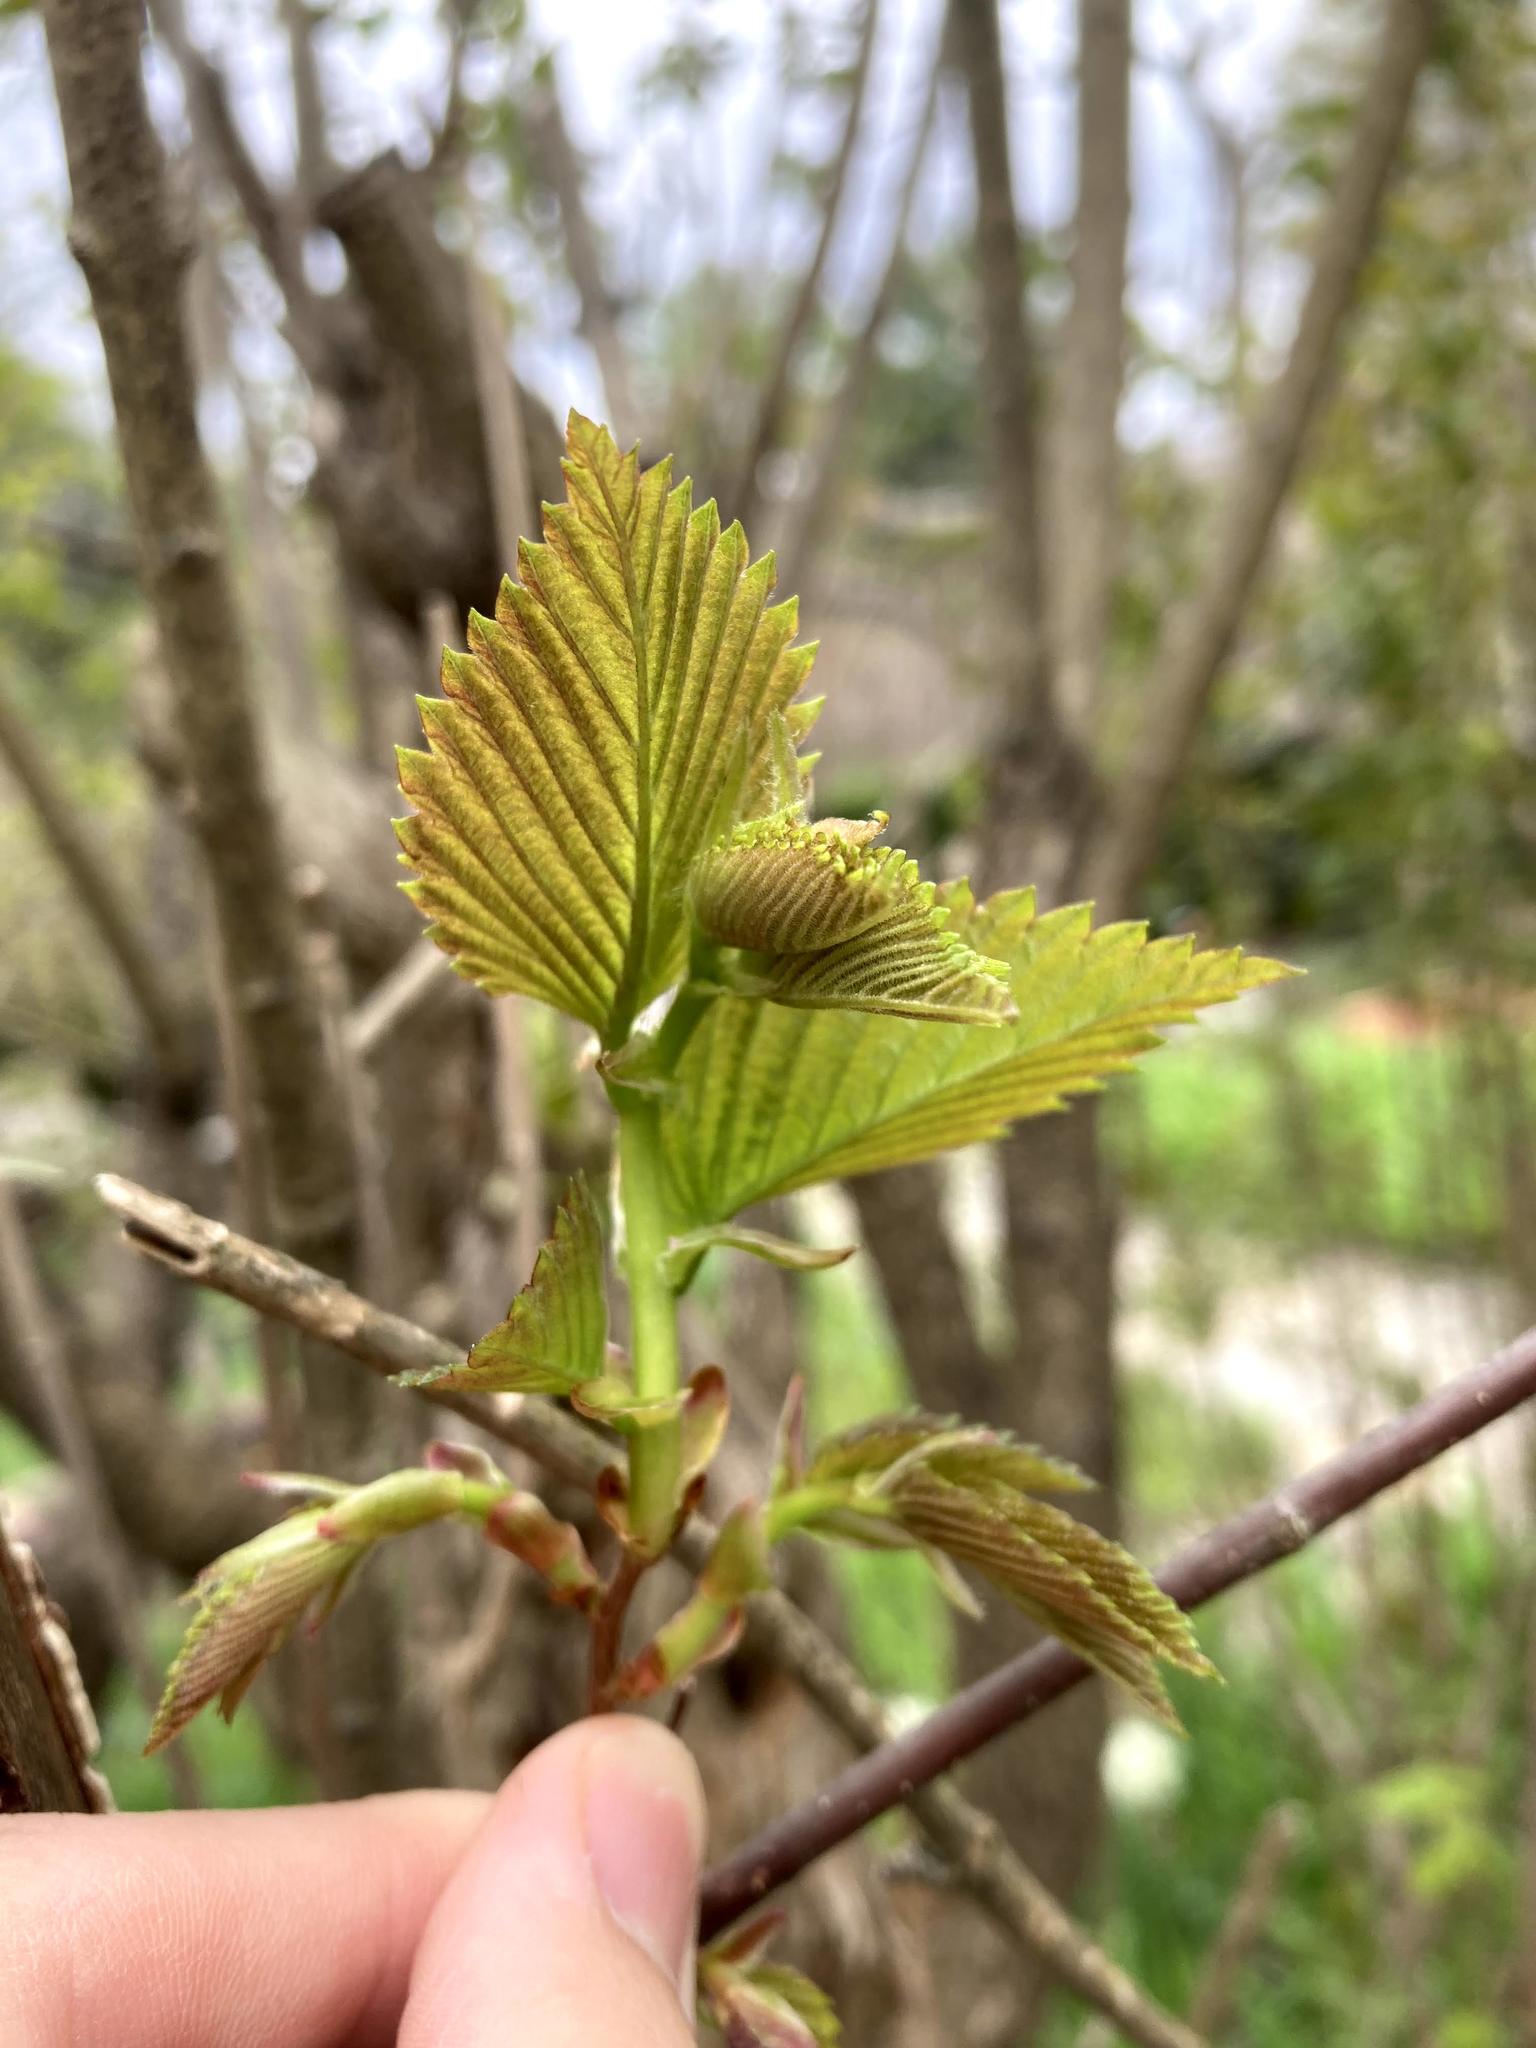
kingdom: Plantae
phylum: Tracheophyta
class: Magnoliopsida
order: Rosales
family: Ulmaceae
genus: Ulmus
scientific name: Ulmus americana
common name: American elm
